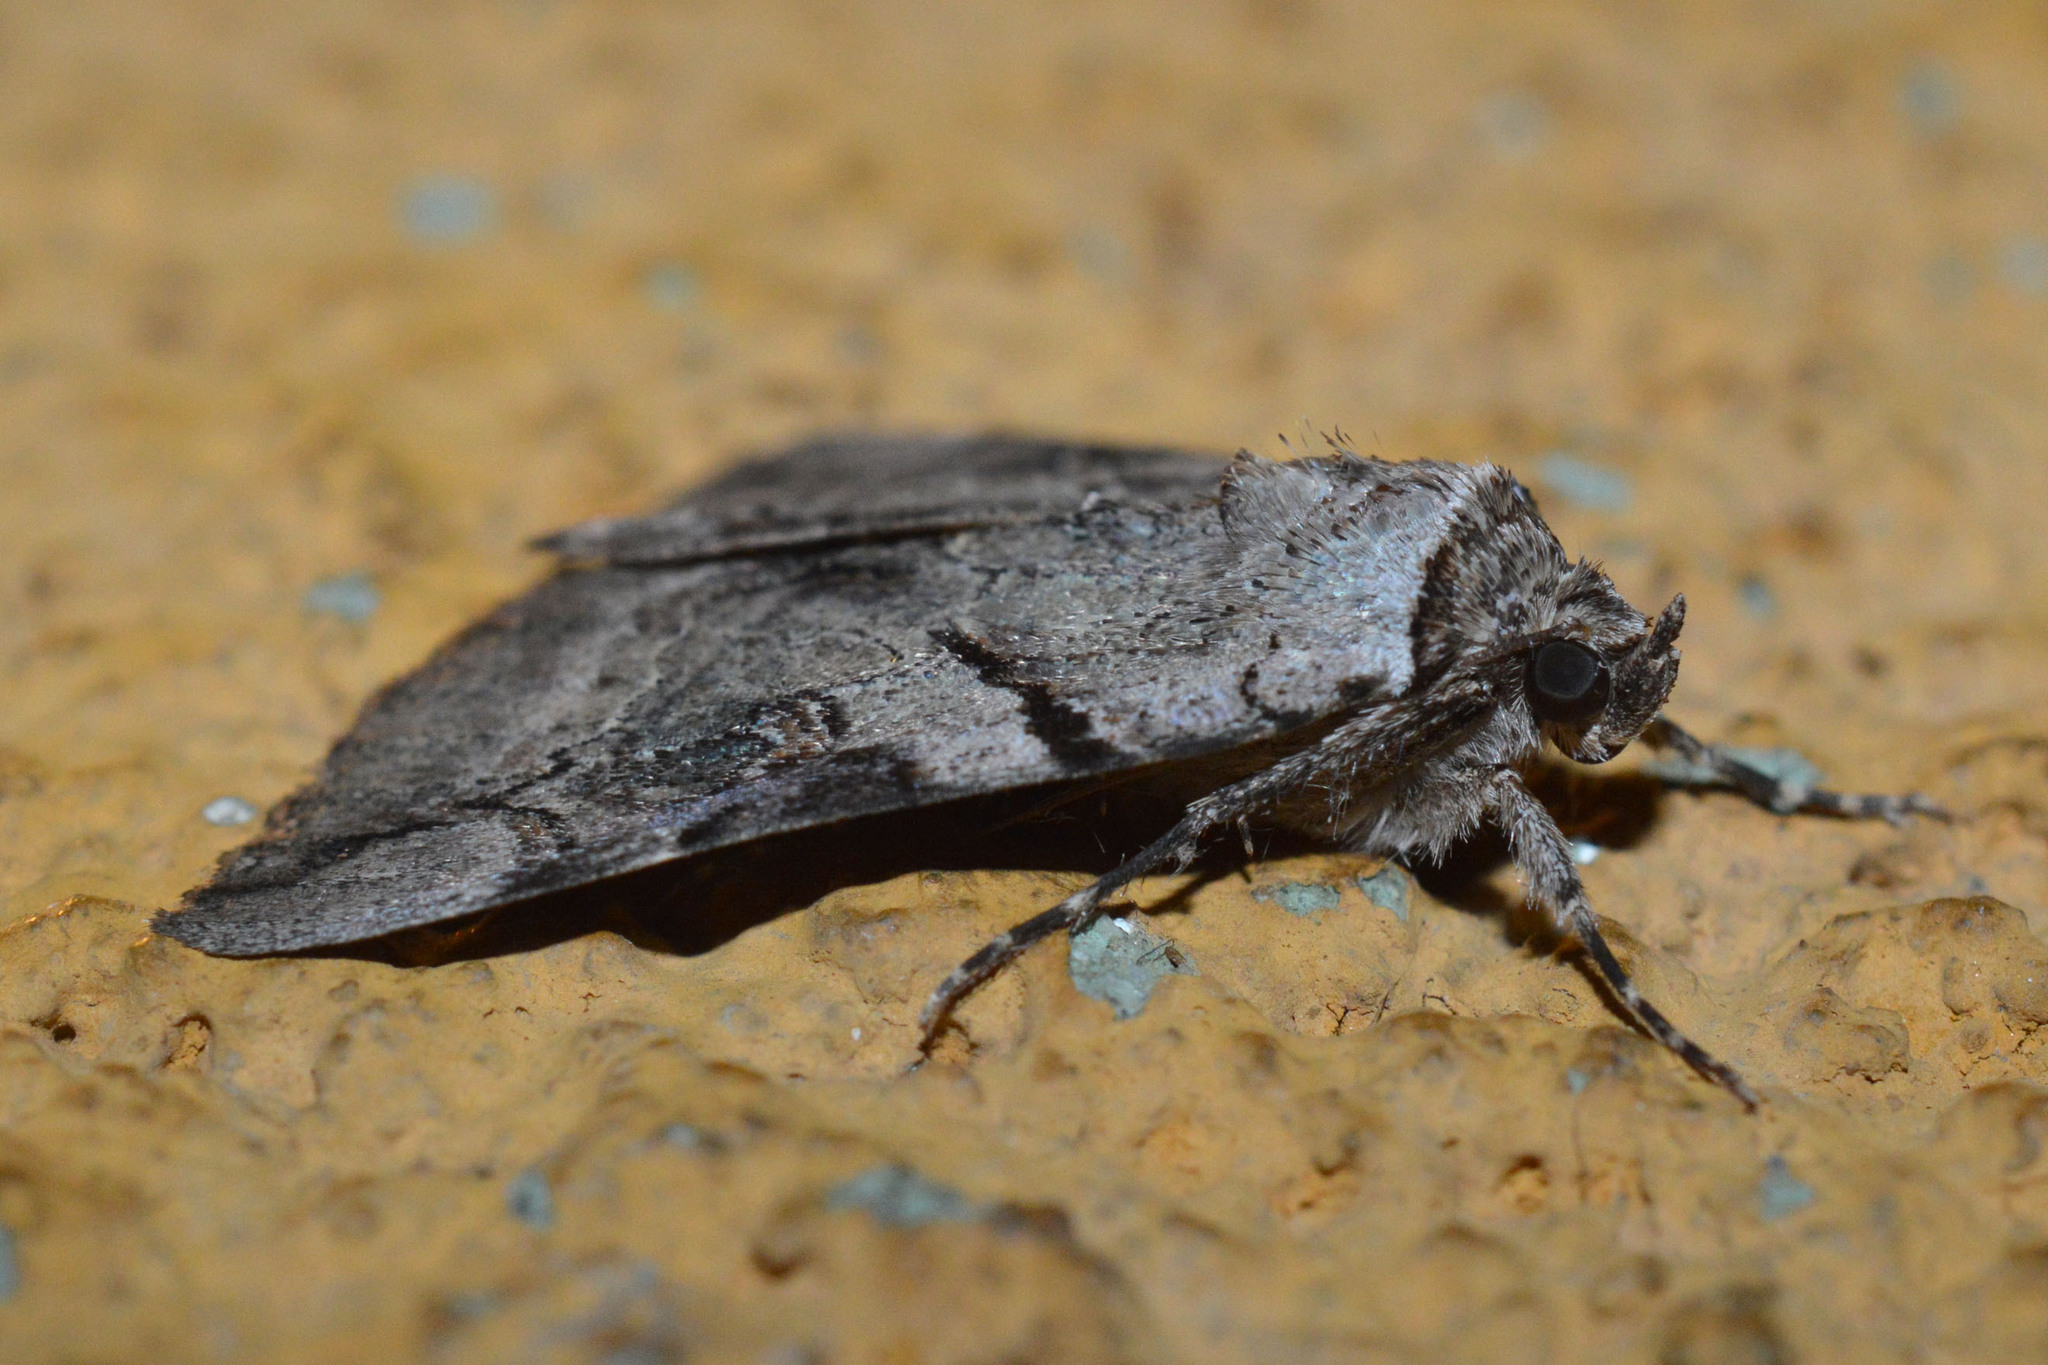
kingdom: Animalia
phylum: Arthropoda
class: Insecta
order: Lepidoptera
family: Erebidae
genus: Catocala
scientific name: Catocala hymenaea
